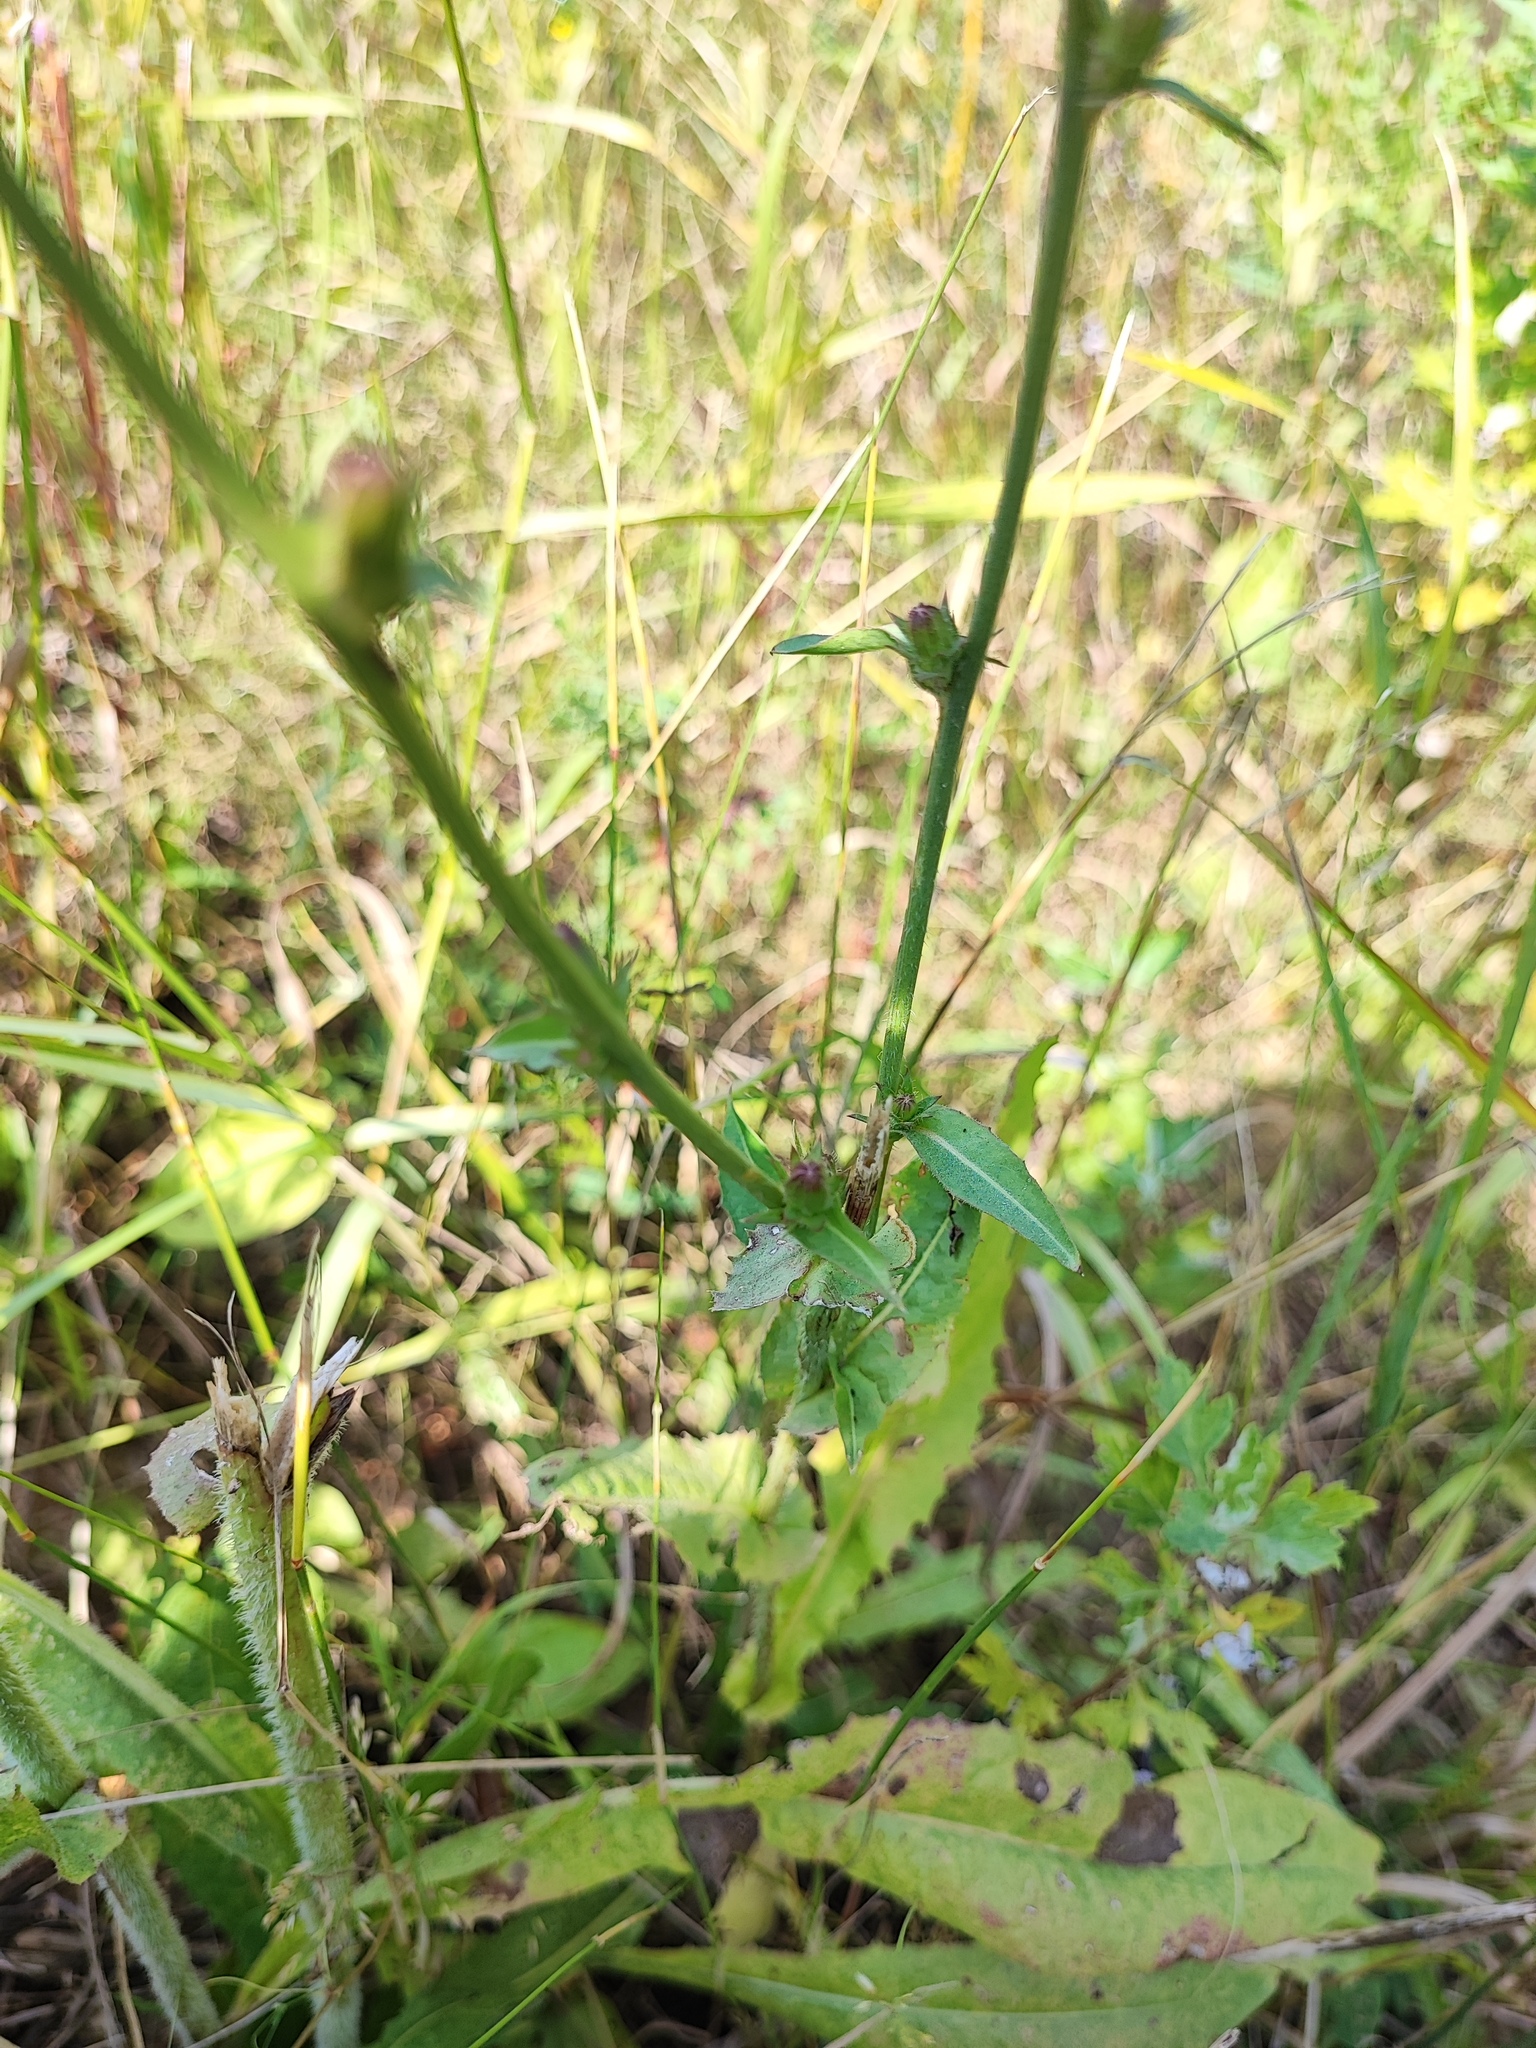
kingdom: Plantae
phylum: Tracheophyta
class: Magnoliopsida
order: Asterales
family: Asteraceae
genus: Cichorium
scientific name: Cichorium intybus
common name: Chicory
